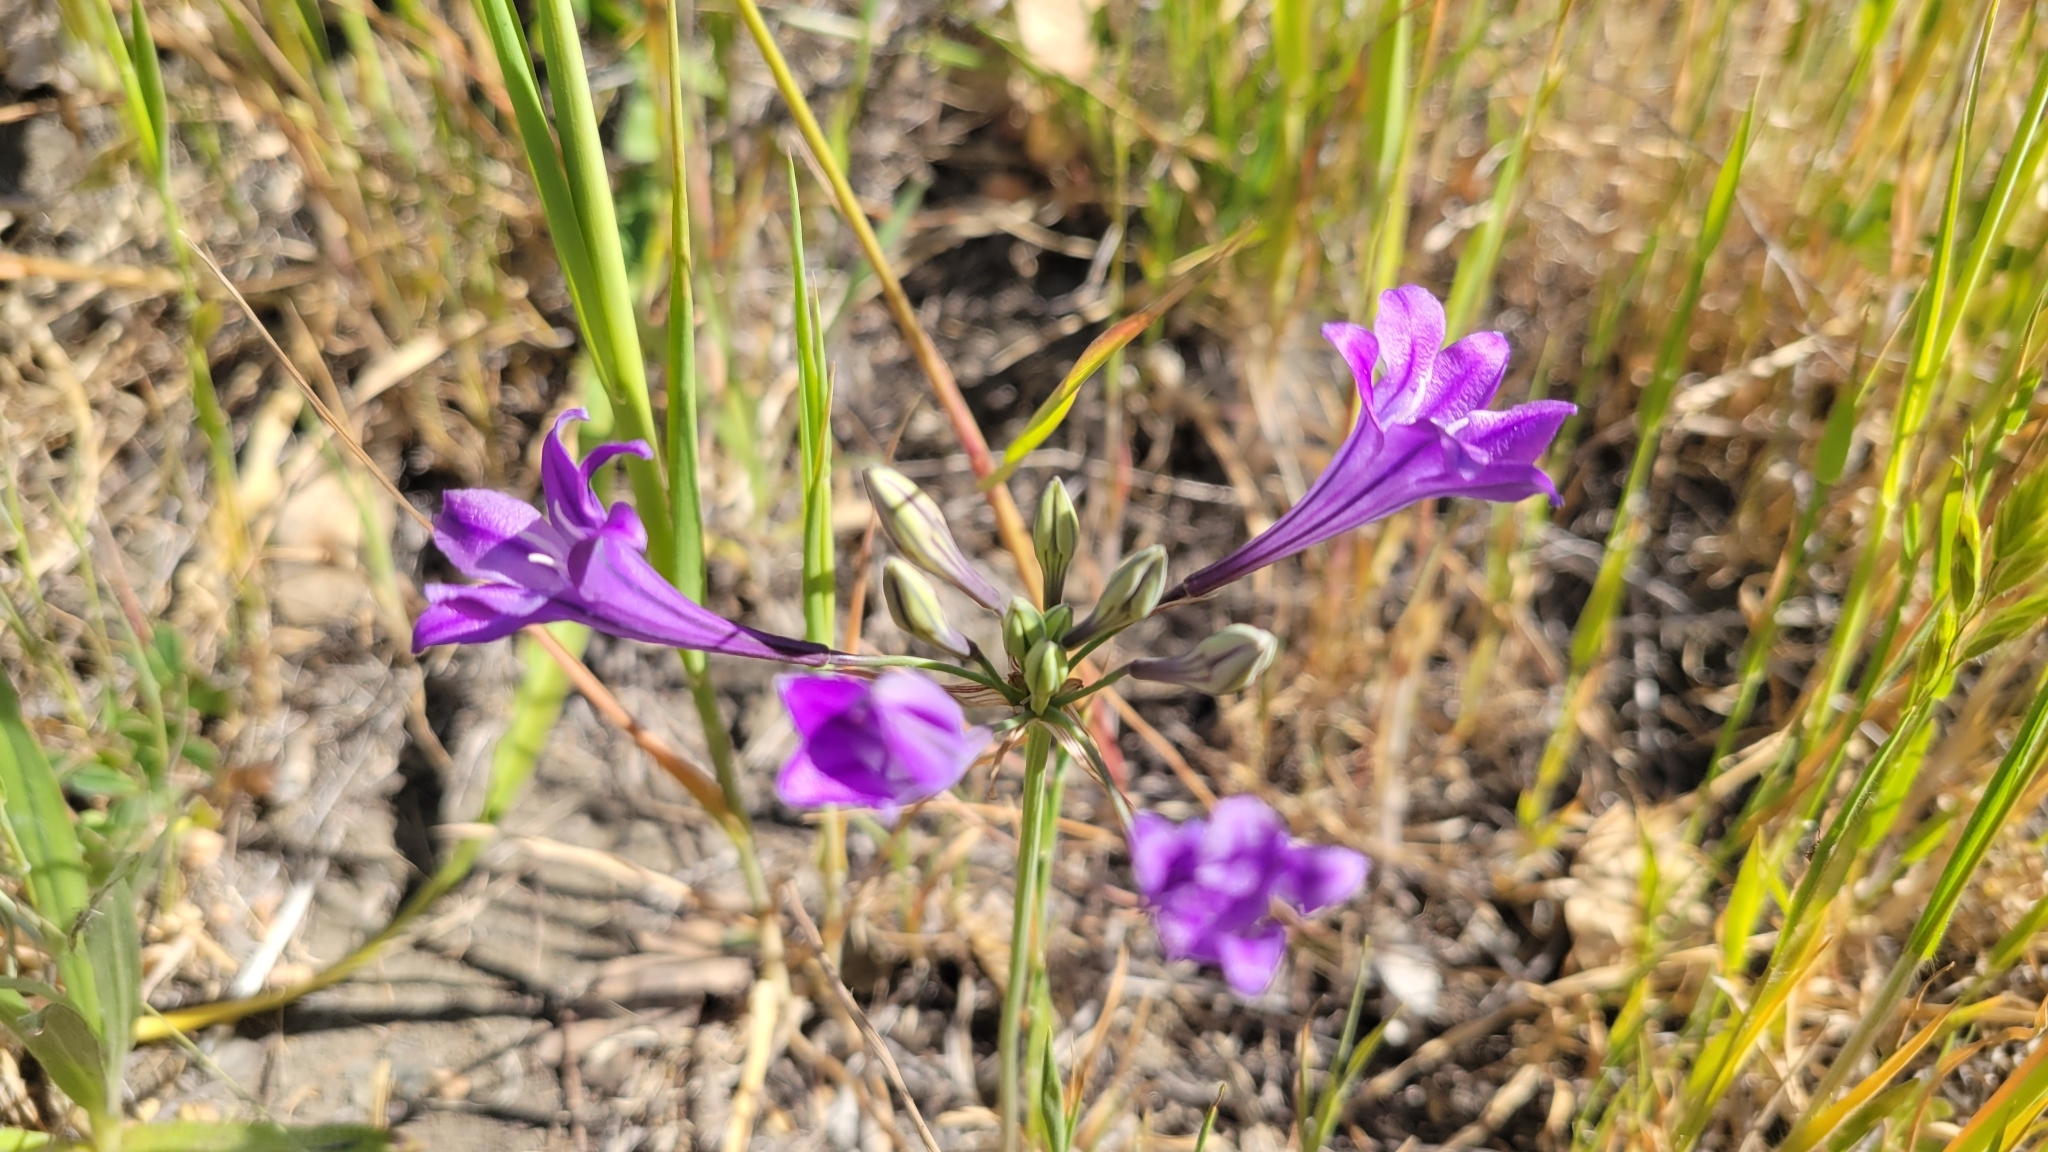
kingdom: Plantae
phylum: Tracheophyta
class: Liliopsida
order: Asparagales
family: Asparagaceae
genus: Triteleia
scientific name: Triteleia laxa
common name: Triplet-lily
